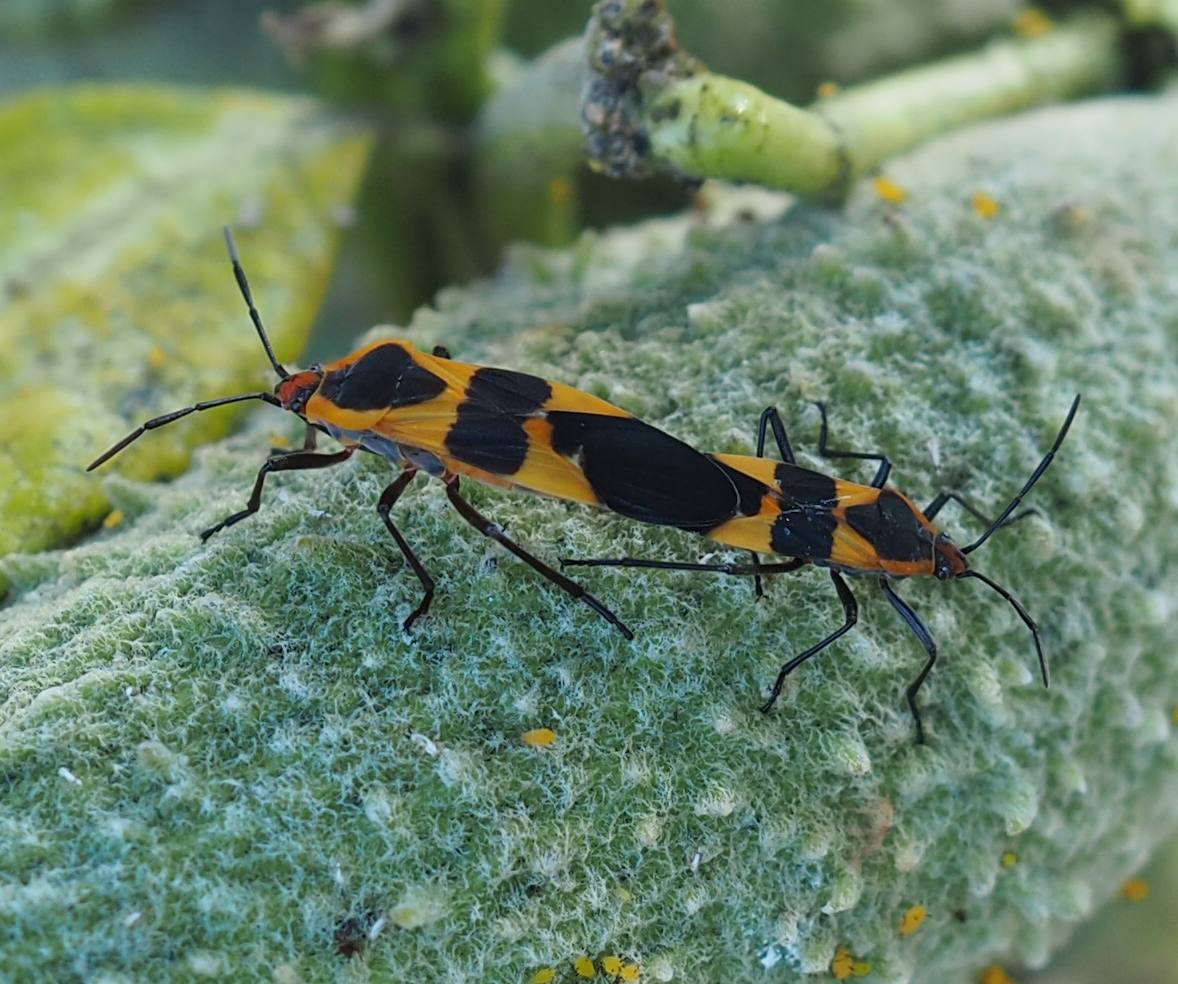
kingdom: Animalia
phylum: Arthropoda
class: Insecta
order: Hemiptera
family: Lygaeidae
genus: Oncopeltus
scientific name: Oncopeltus fasciatus
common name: Large milkweed bug
